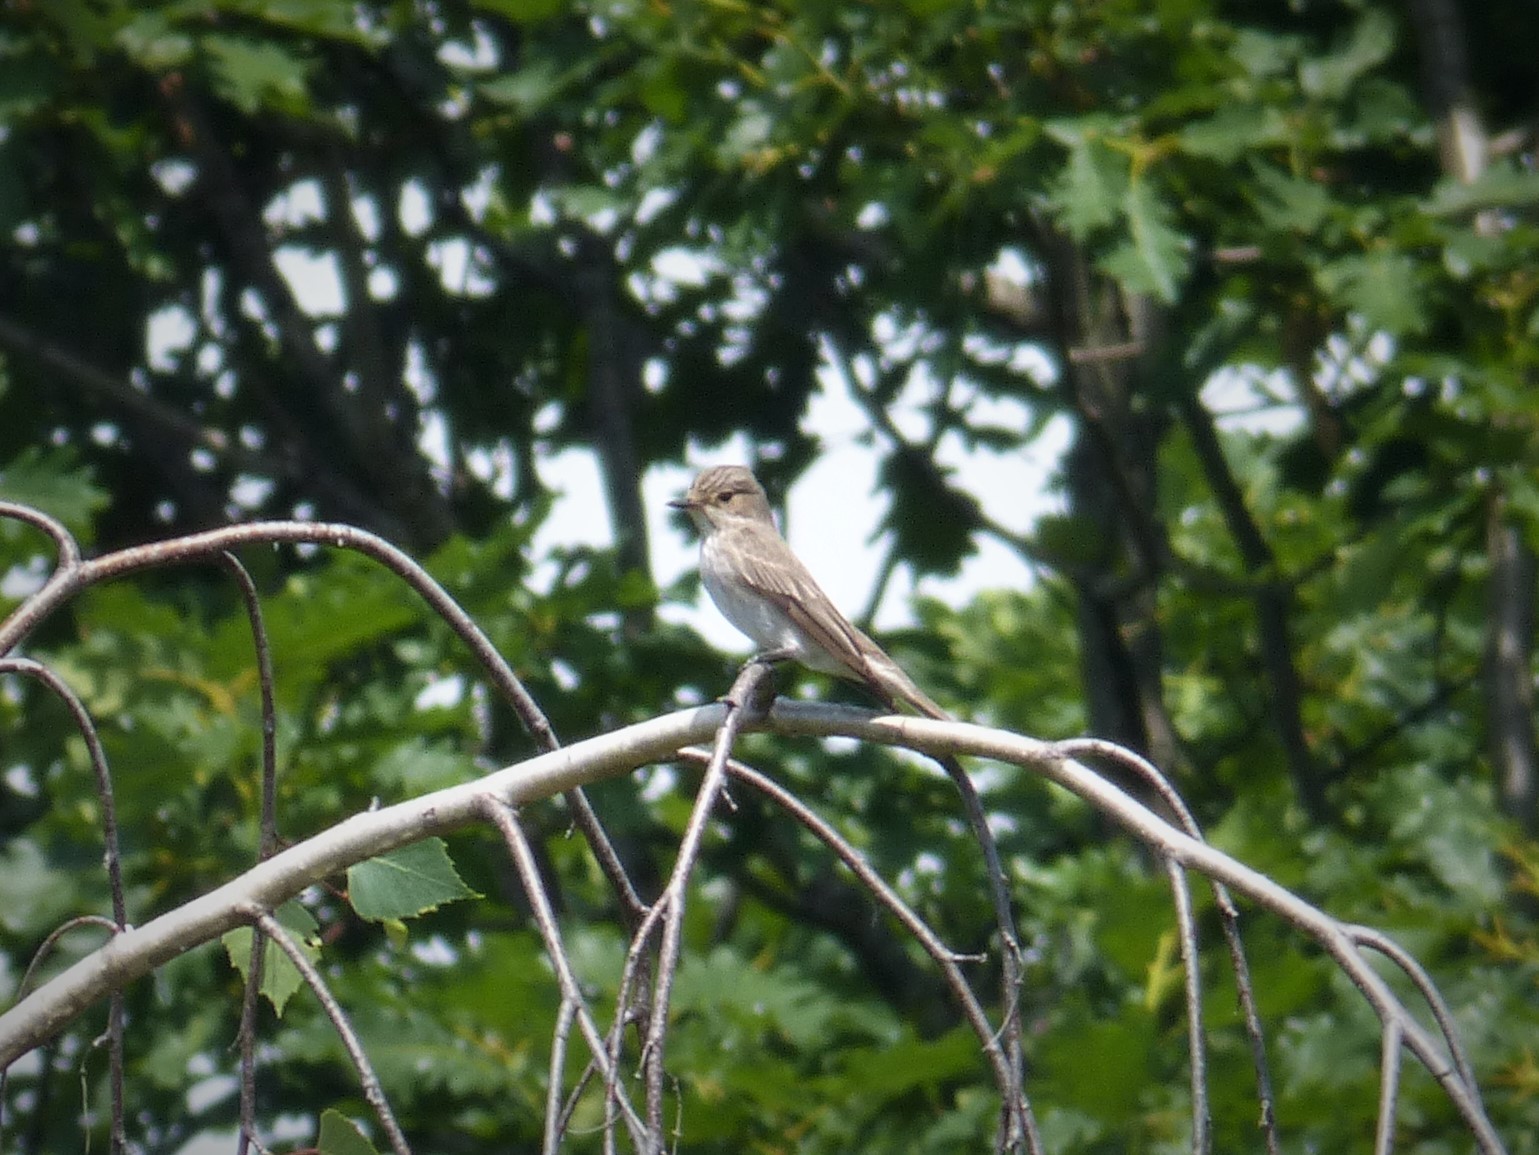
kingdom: Animalia
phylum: Chordata
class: Aves
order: Passeriformes
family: Muscicapidae
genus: Muscicapa
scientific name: Muscicapa striata
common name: Spotted flycatcher
